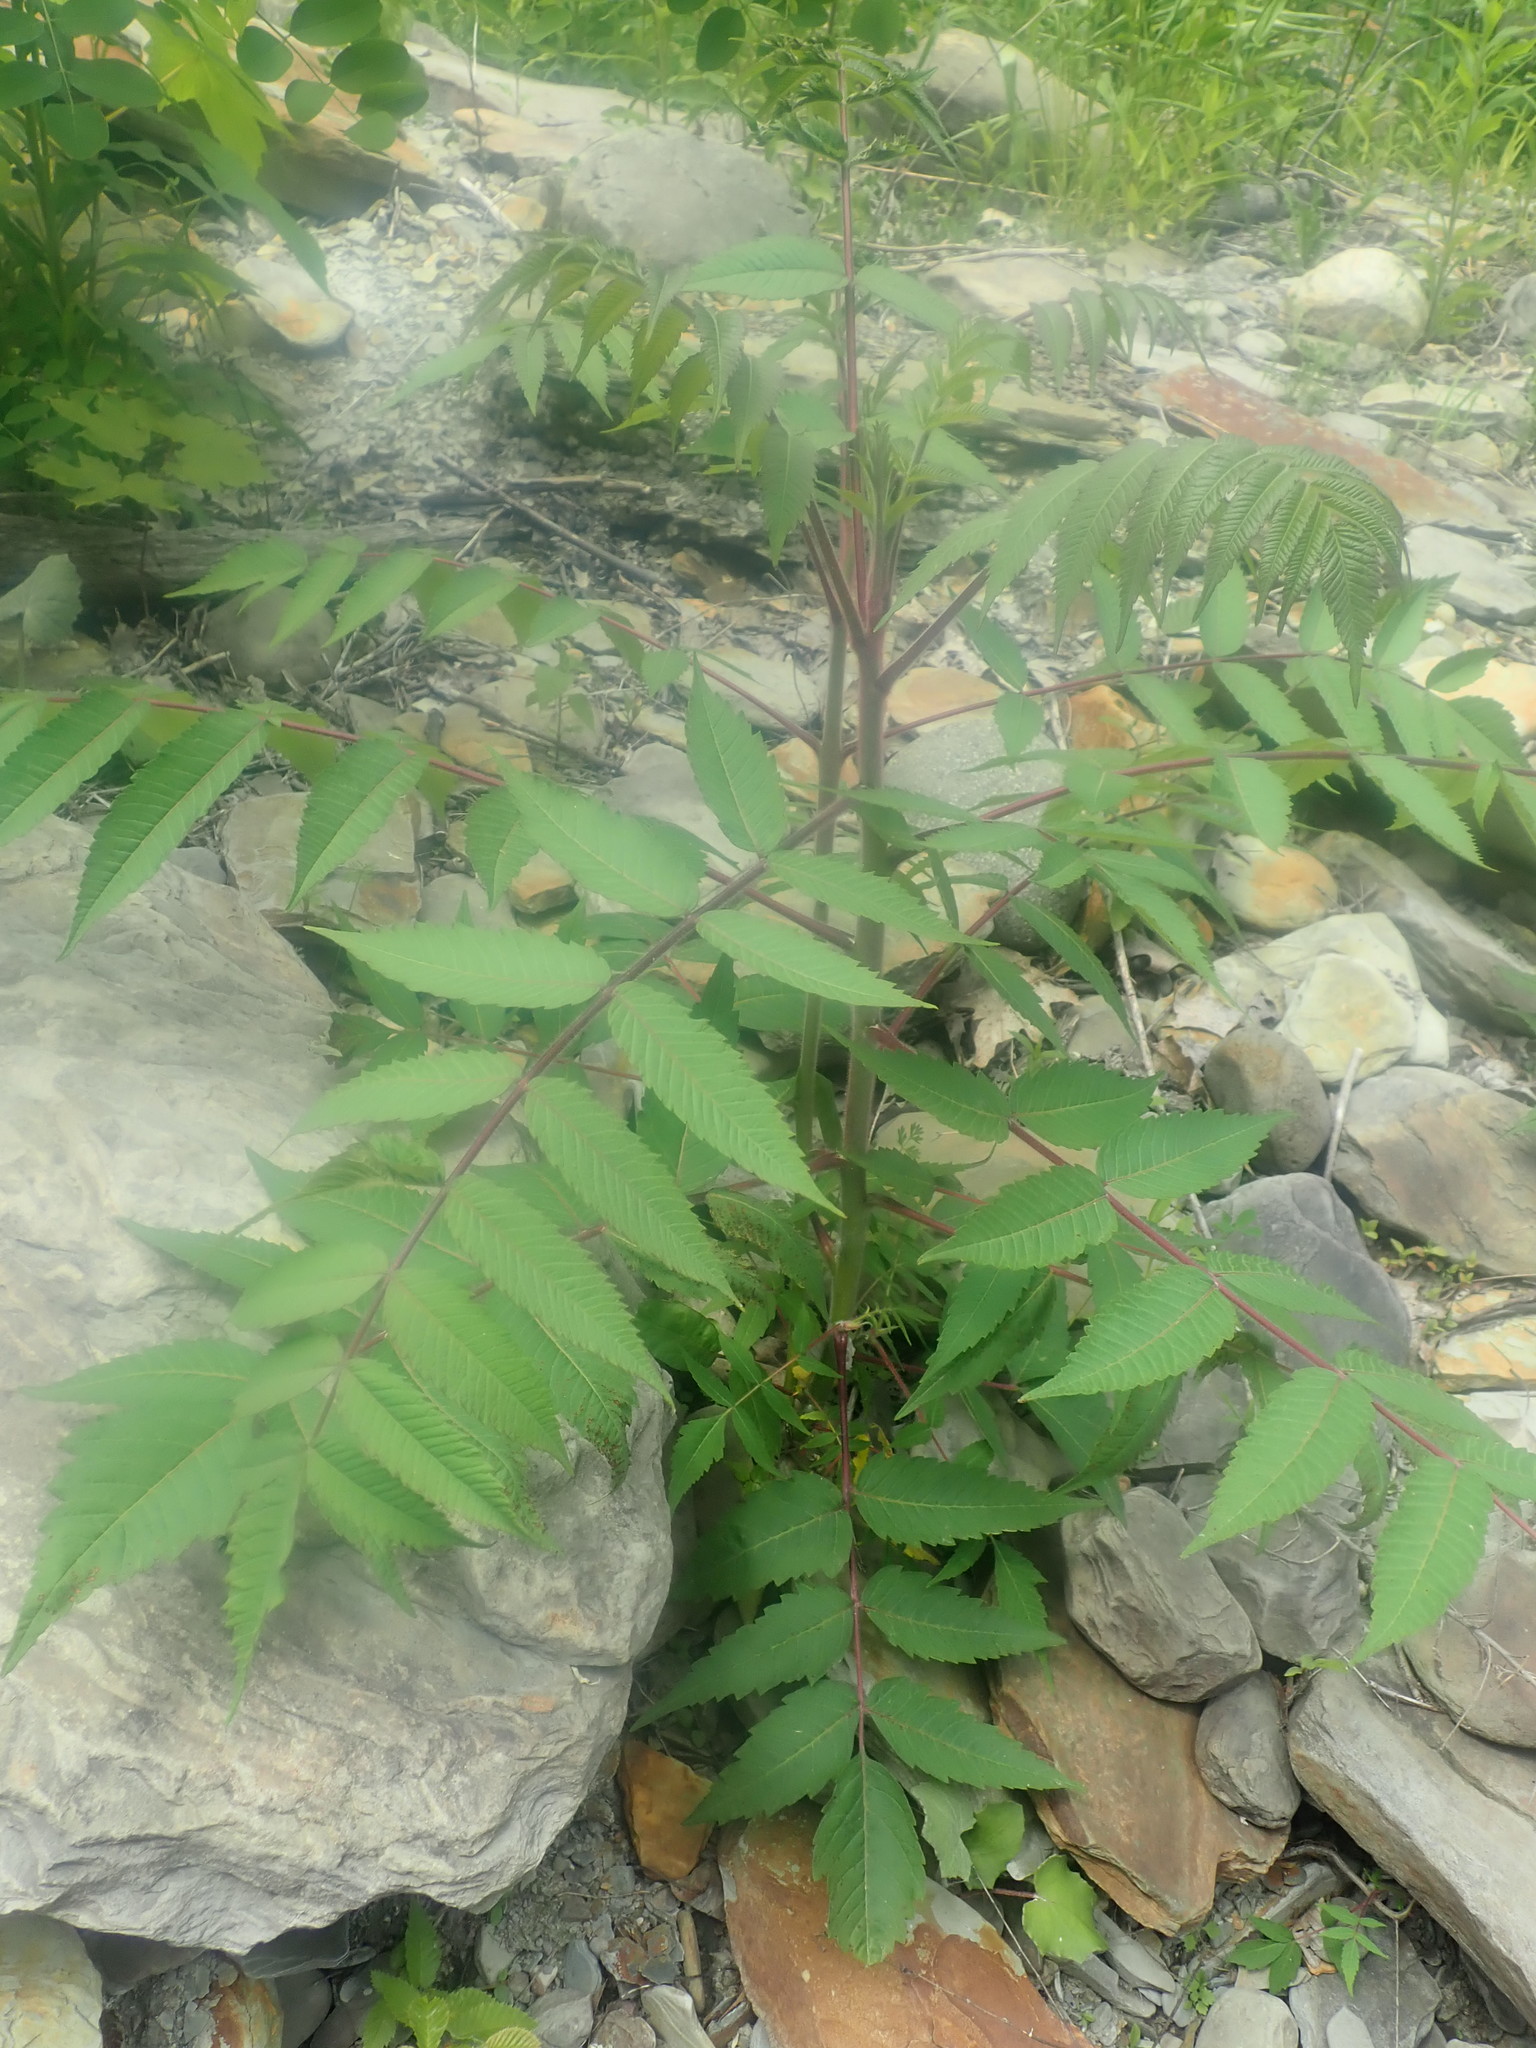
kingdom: Plantae
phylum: Tracheophyta
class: Magnoliopsida
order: Sapindales
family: Anacardiaceae
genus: Rhus
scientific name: Rhus typhina
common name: Staghorn sumac
